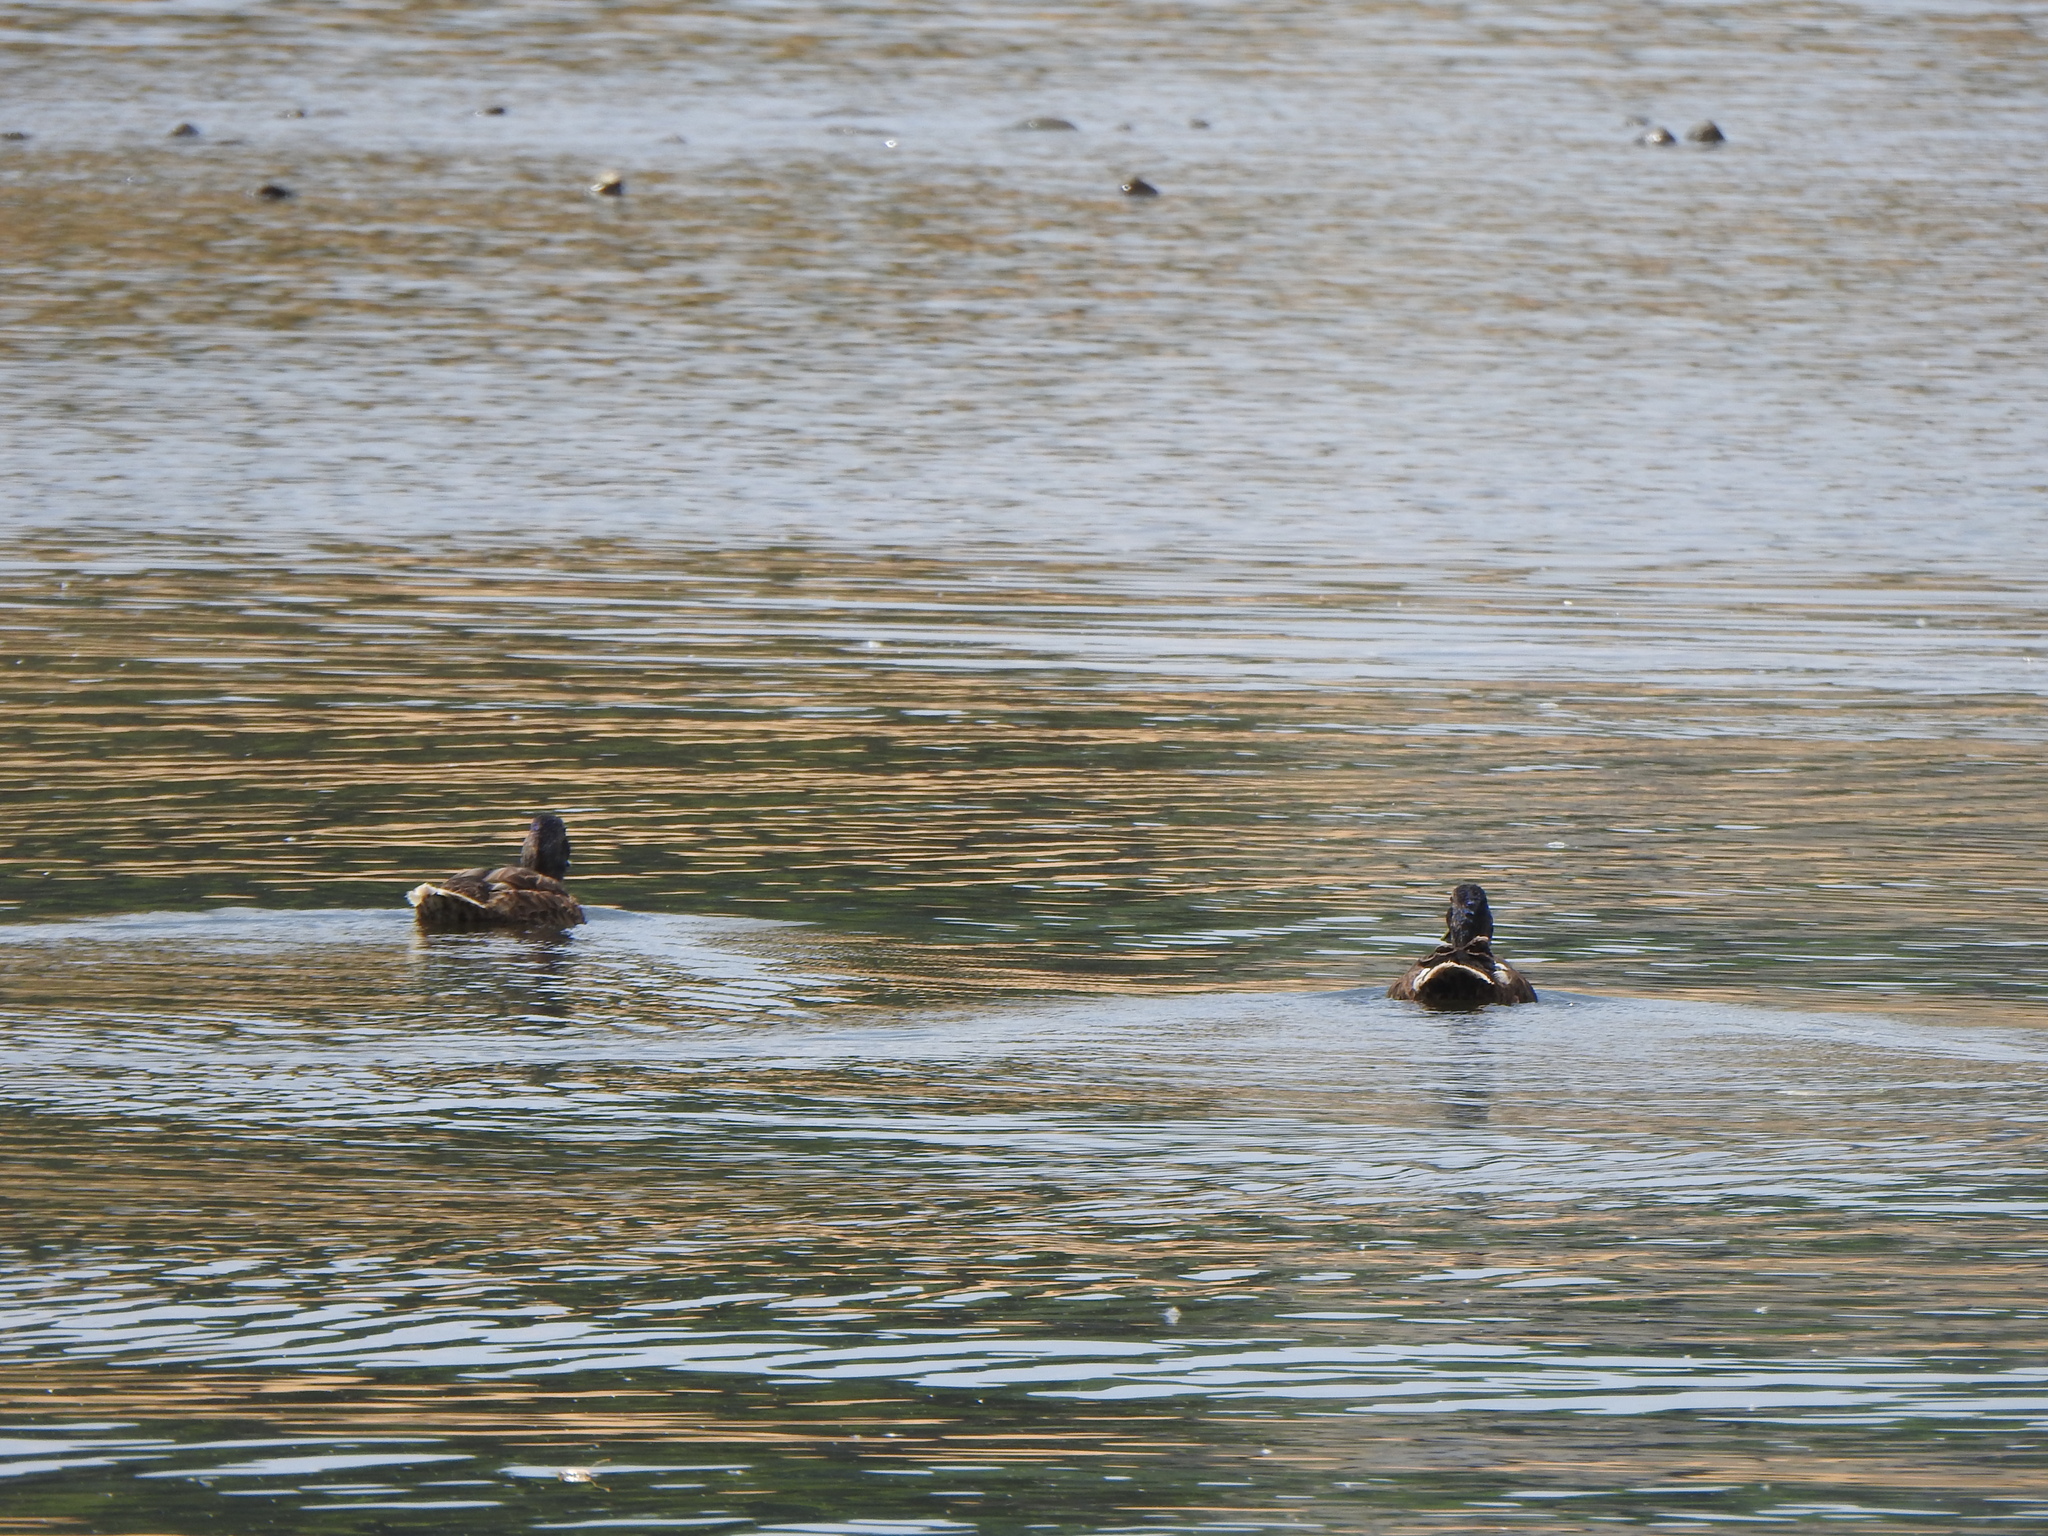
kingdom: Animalia
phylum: Chordata
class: Aves
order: Anseriformes
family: Anatidae
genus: Anas
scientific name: Anas platyrhynchos
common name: Mallard
